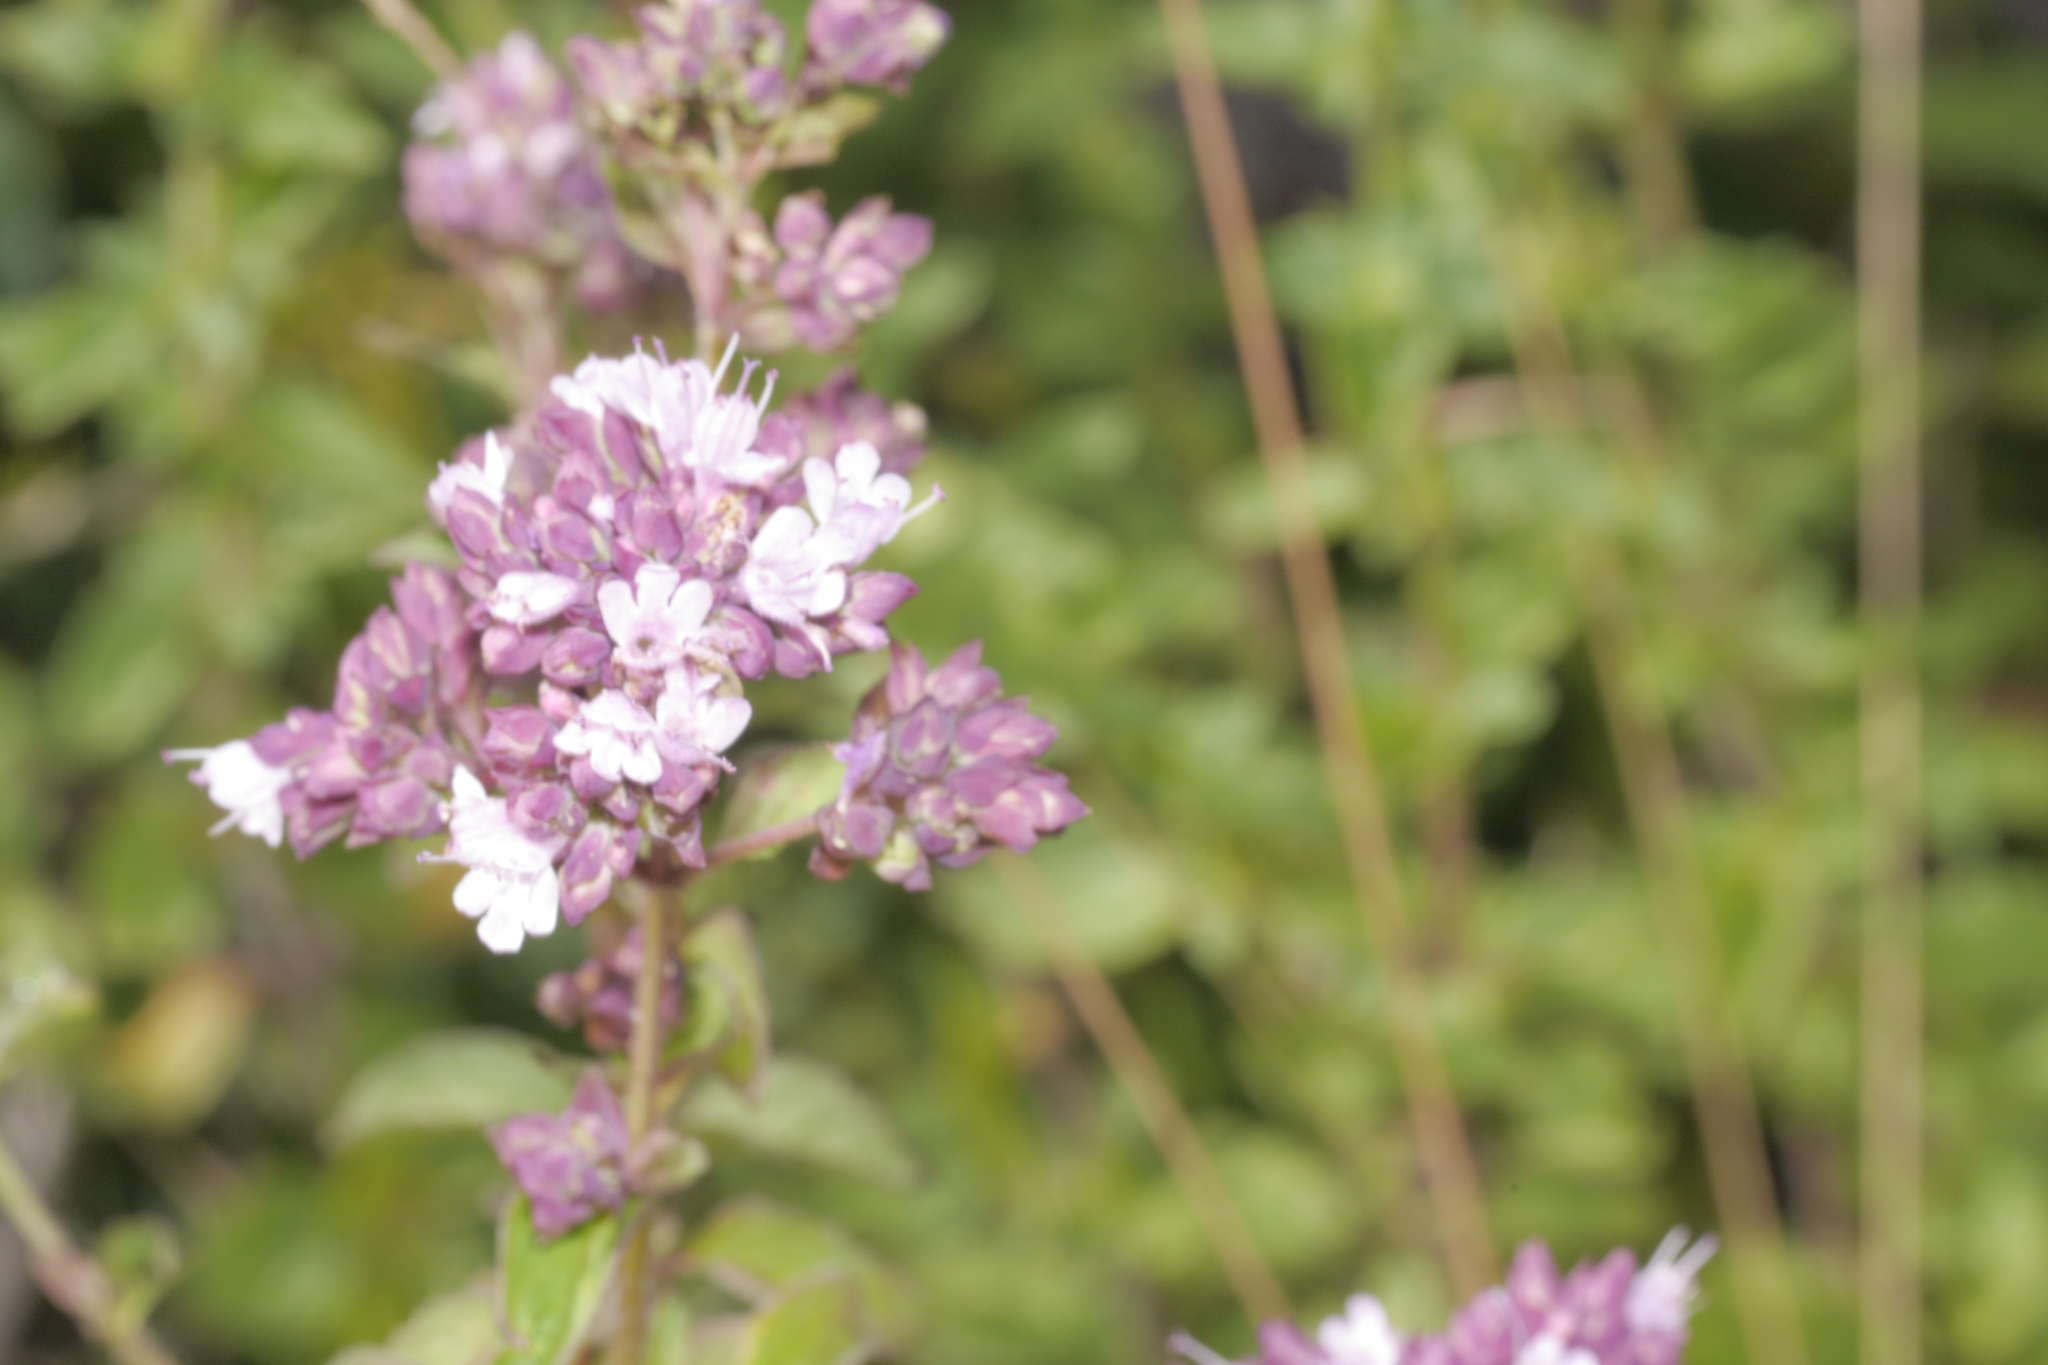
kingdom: Plantae
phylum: Tracheophyta
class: Magnoliopsida
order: Lamiales
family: Lamiaceae
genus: Origanum
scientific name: Origanum vulgare
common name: Wild marjoram
